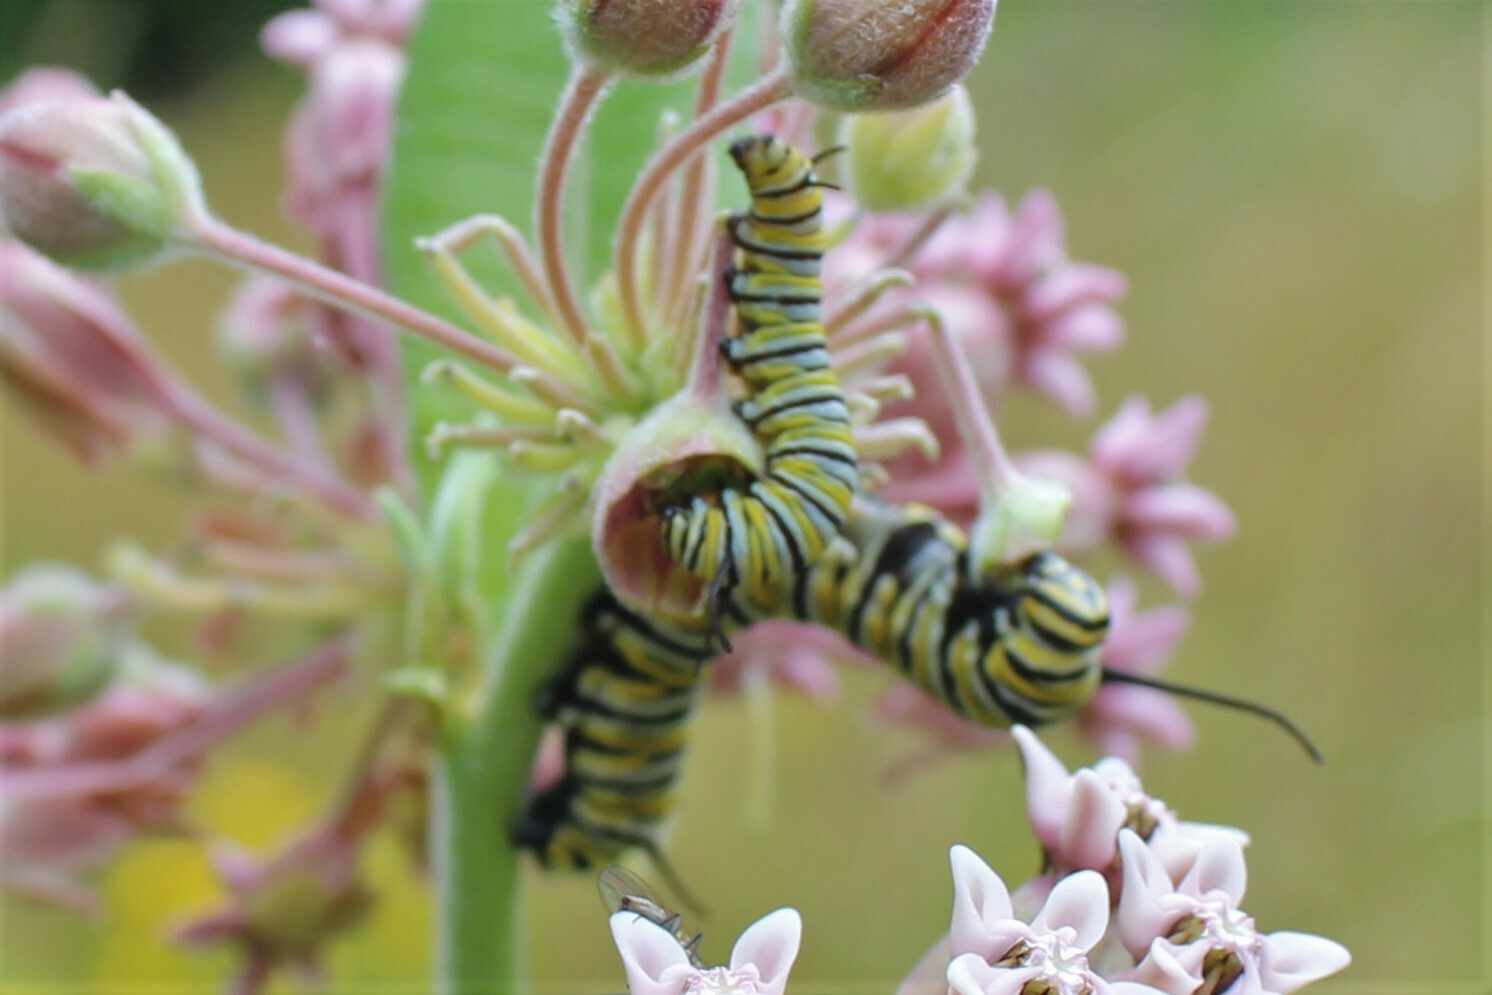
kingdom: Animalia
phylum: Arthropoda
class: Insecta
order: Lepidoptera
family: Nymphalidae
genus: Danaus
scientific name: Danaus plexippus
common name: Monarch
